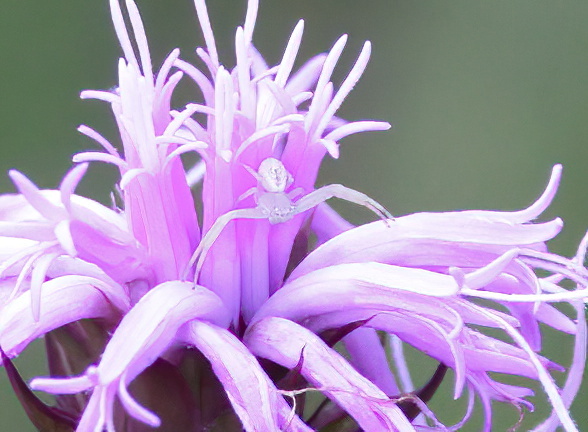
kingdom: Animalia
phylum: Arthropoda
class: Arachnida
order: Araneae
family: Thomisidae
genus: Misumessus
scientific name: Misumessus oblongus
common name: American green crab spider
